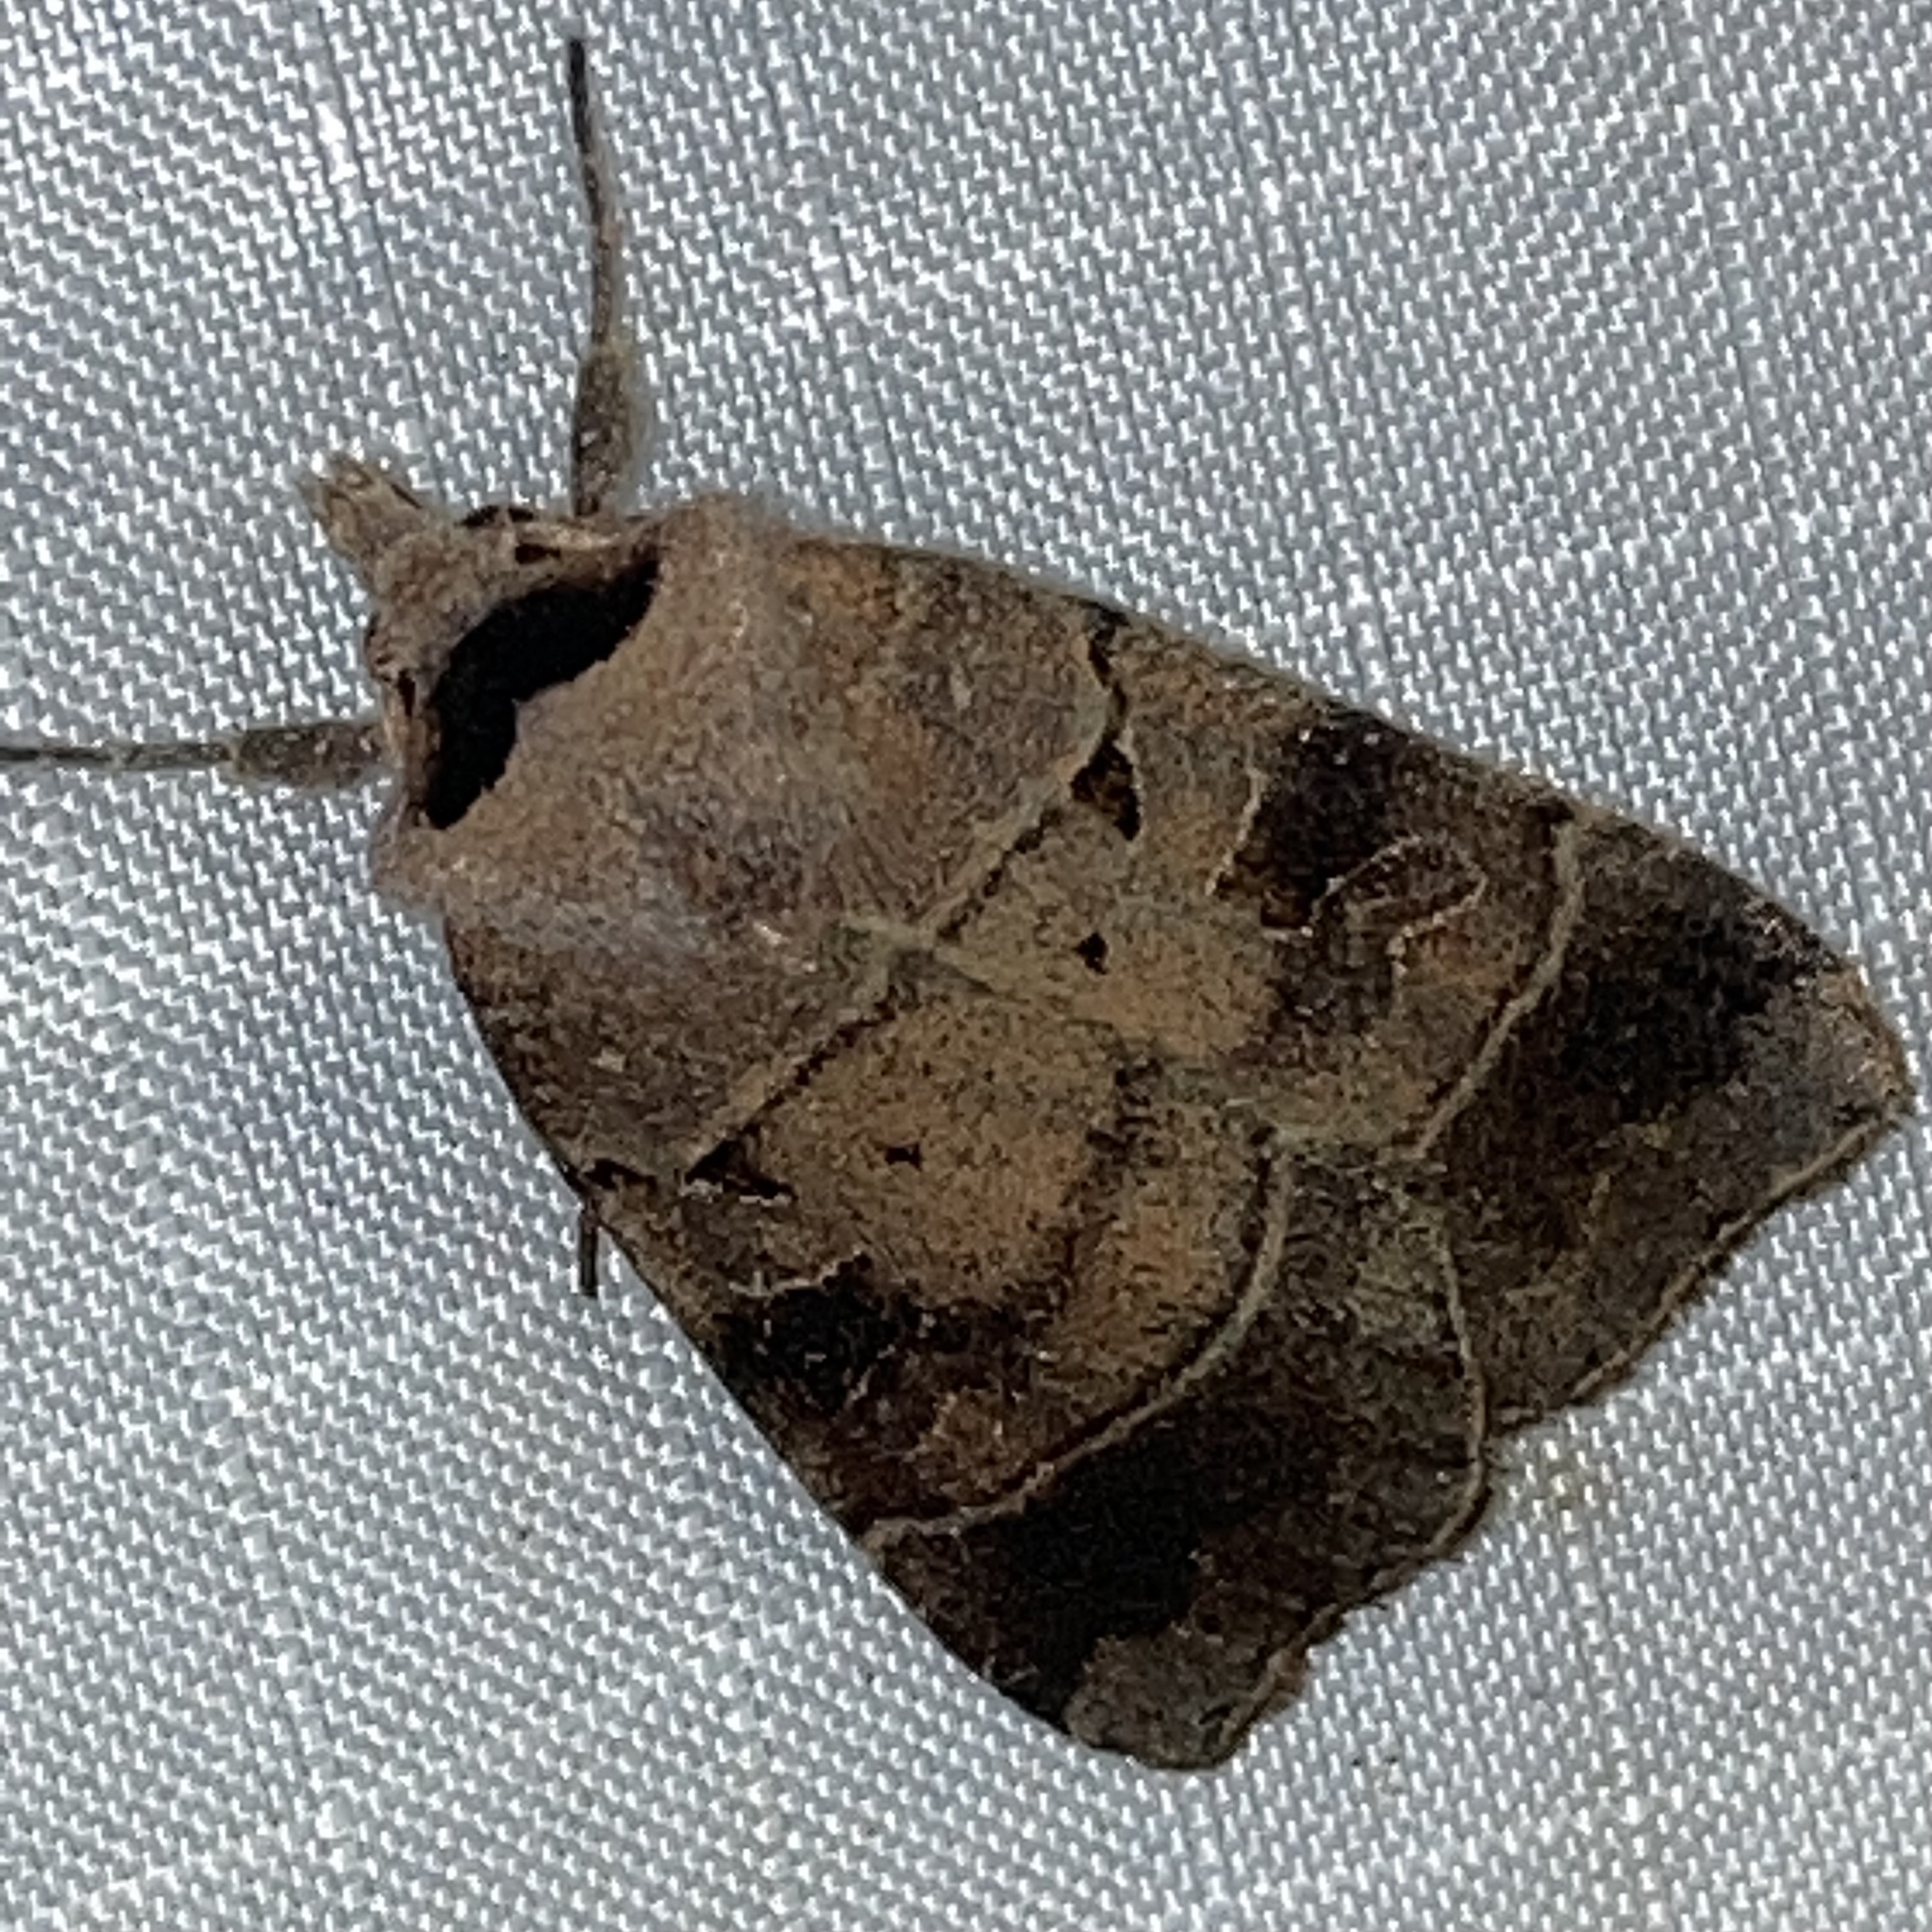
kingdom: Animalia
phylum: Arthropoda
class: Insecta
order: Lepidoptera
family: Noctuidae
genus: Agnorisma
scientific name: Agnorisma badinodis
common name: Pale-banded dart
